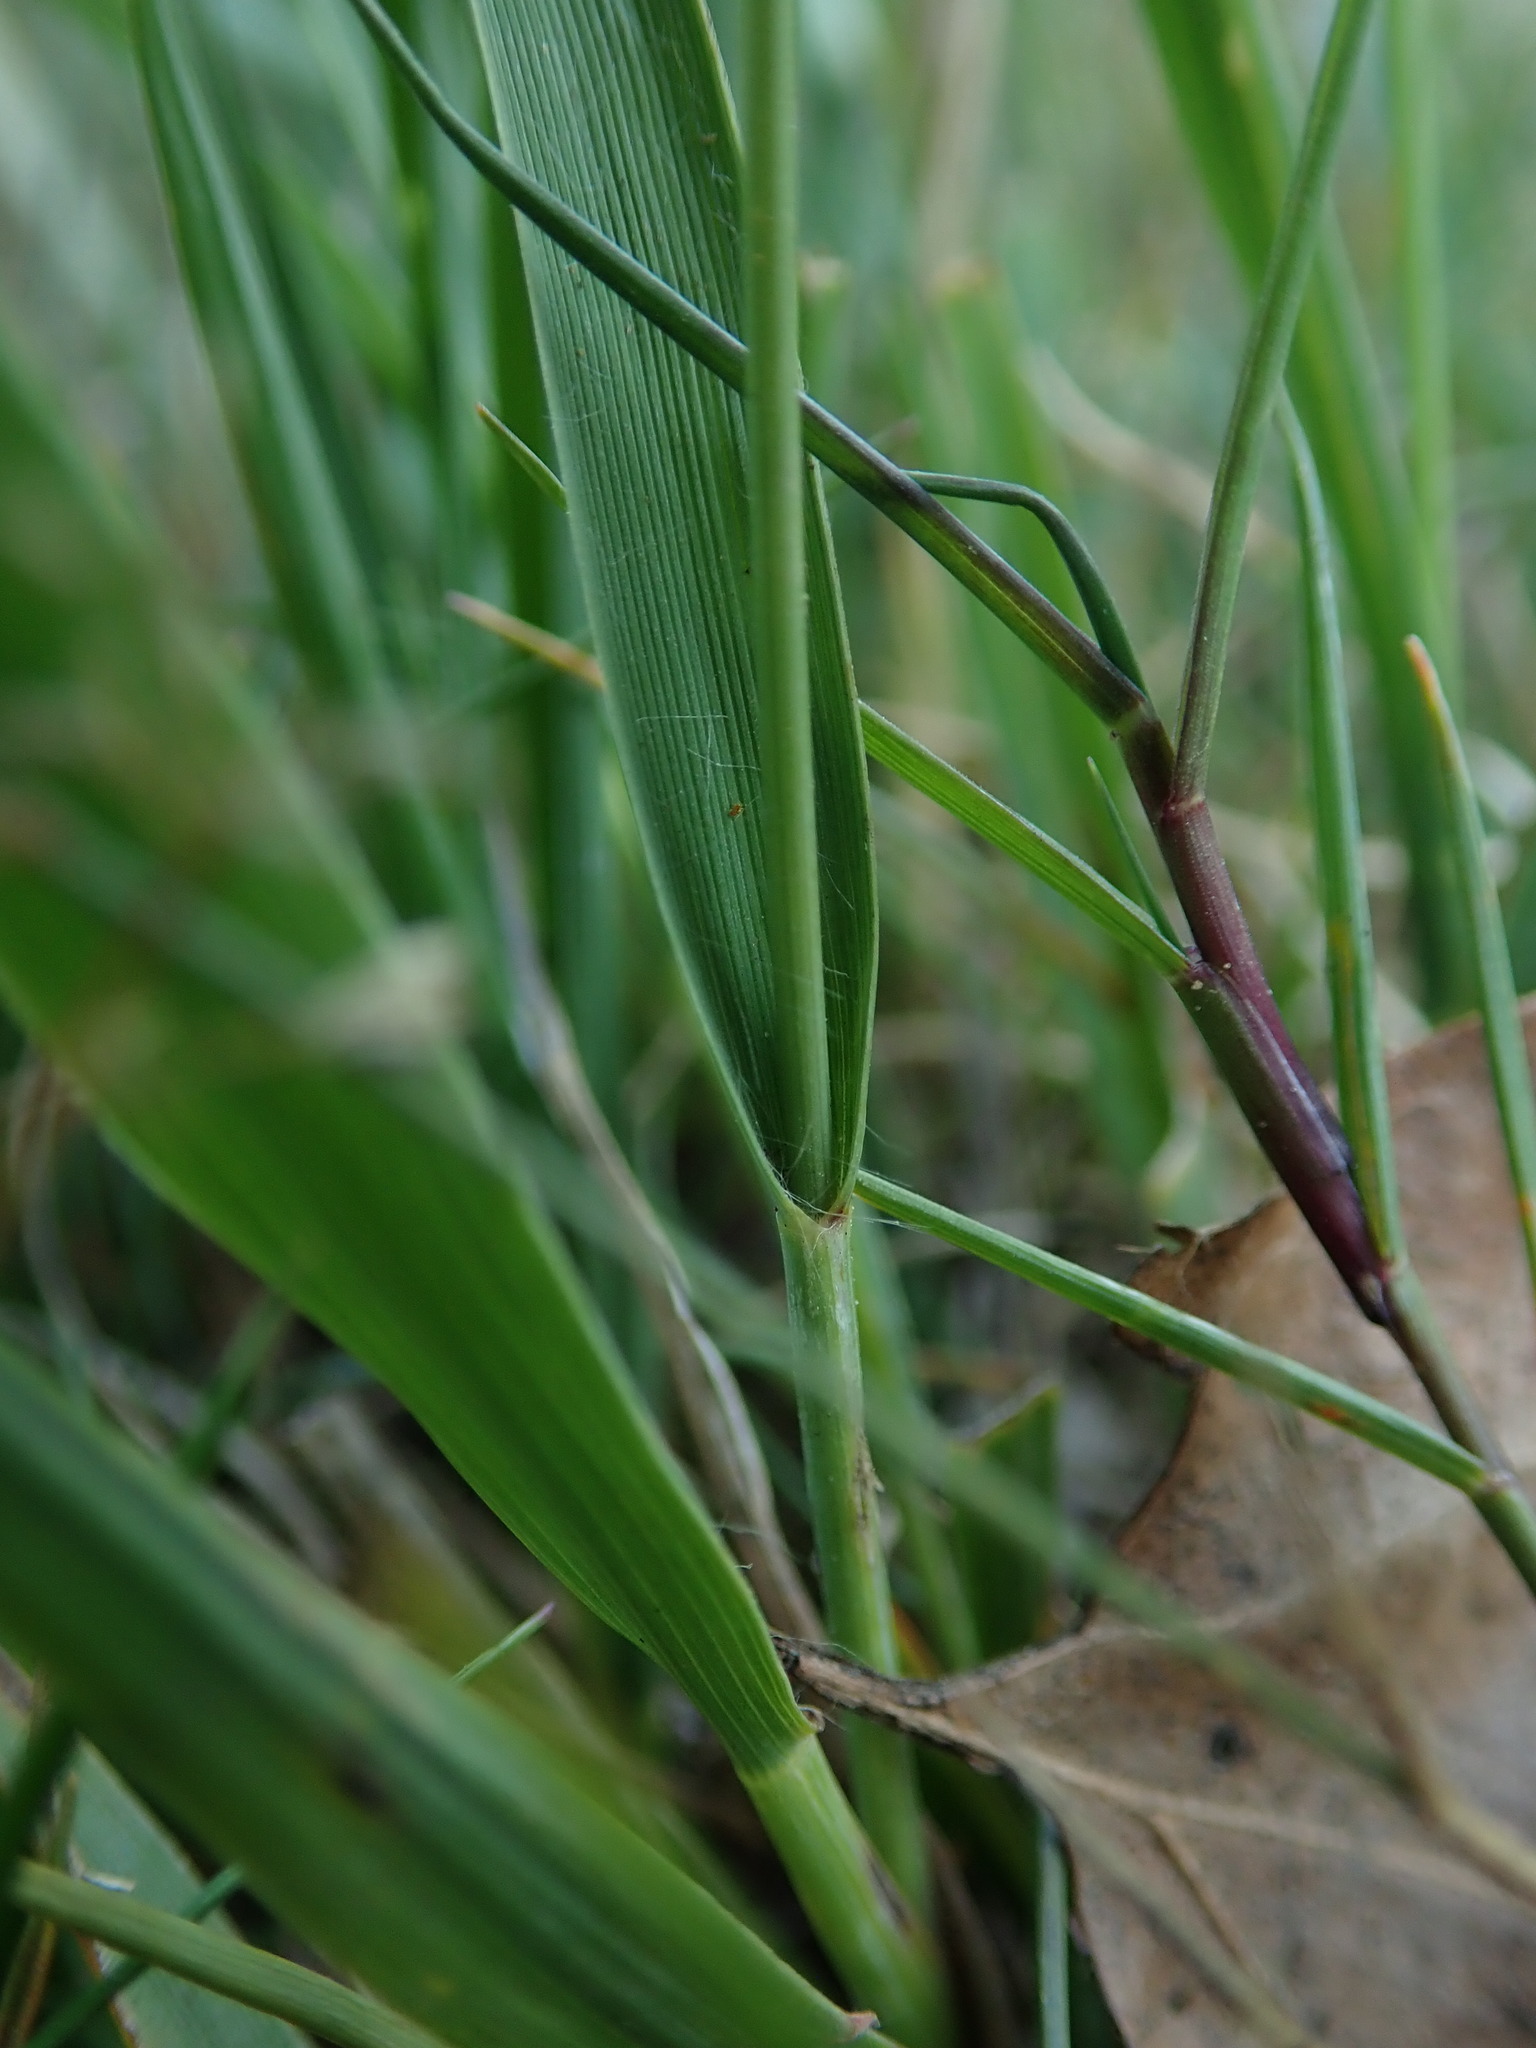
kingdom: Plantae
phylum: Tracheophyta
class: Liliopsida
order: Poales
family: Poaceae
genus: Molinia
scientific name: Molinia caerulea
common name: Purple moor-grass
